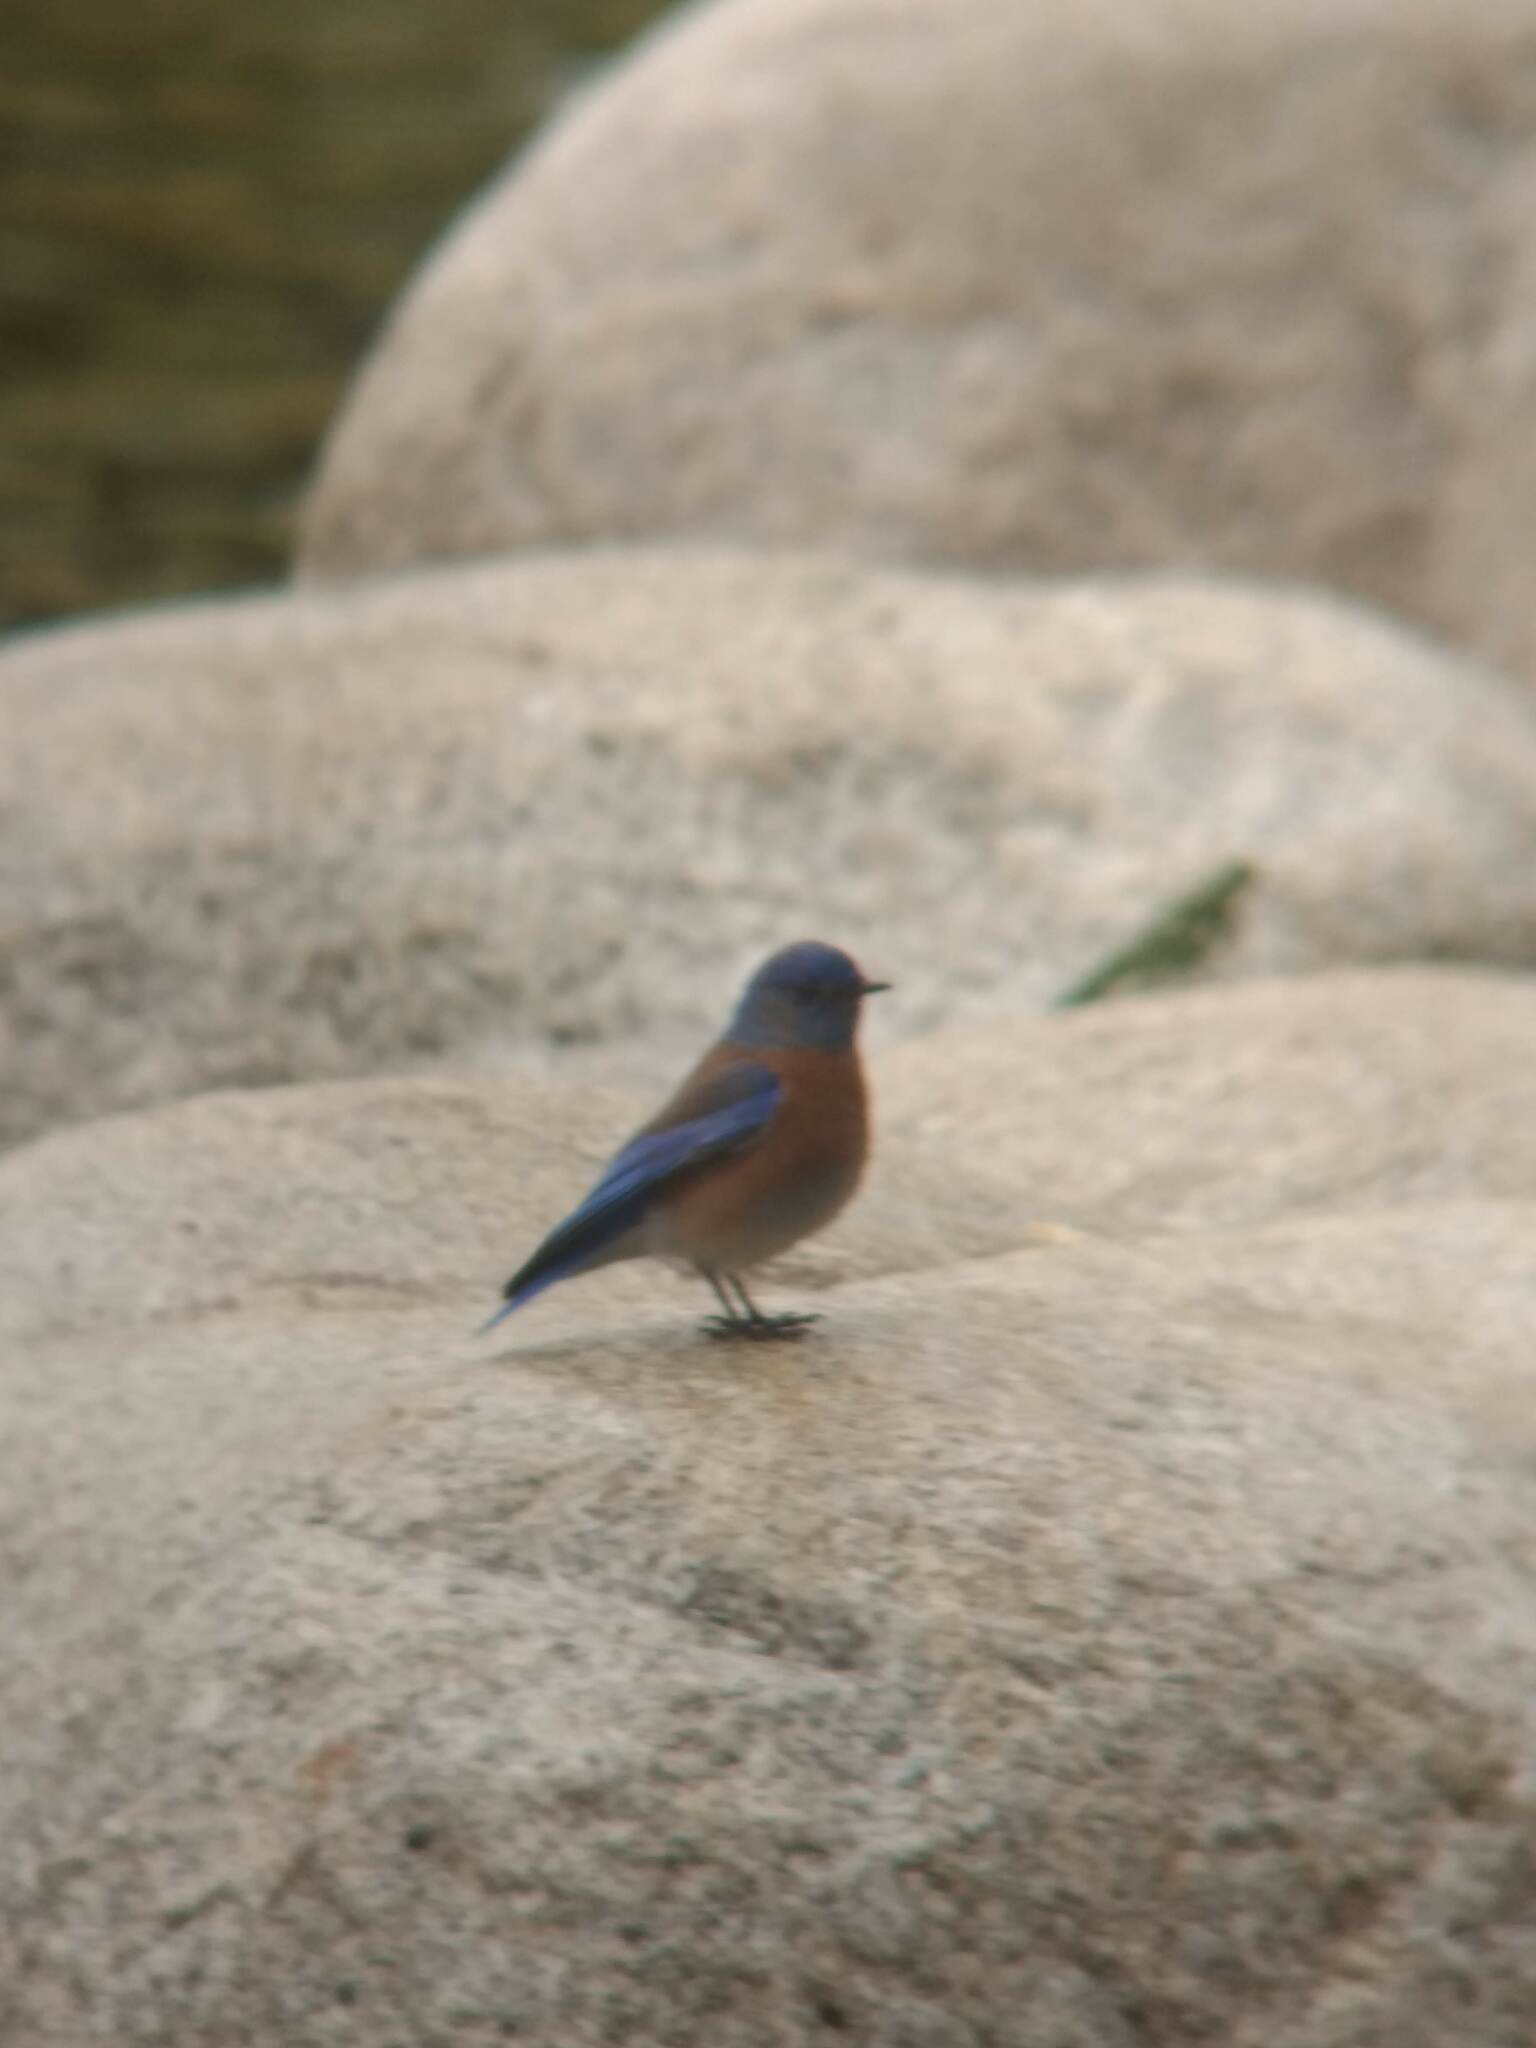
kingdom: Animalia
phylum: Chordata
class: Aves
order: Passeriformes
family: Turdidae
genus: Sialia
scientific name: Sialia mexicana
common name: Western bluebird
